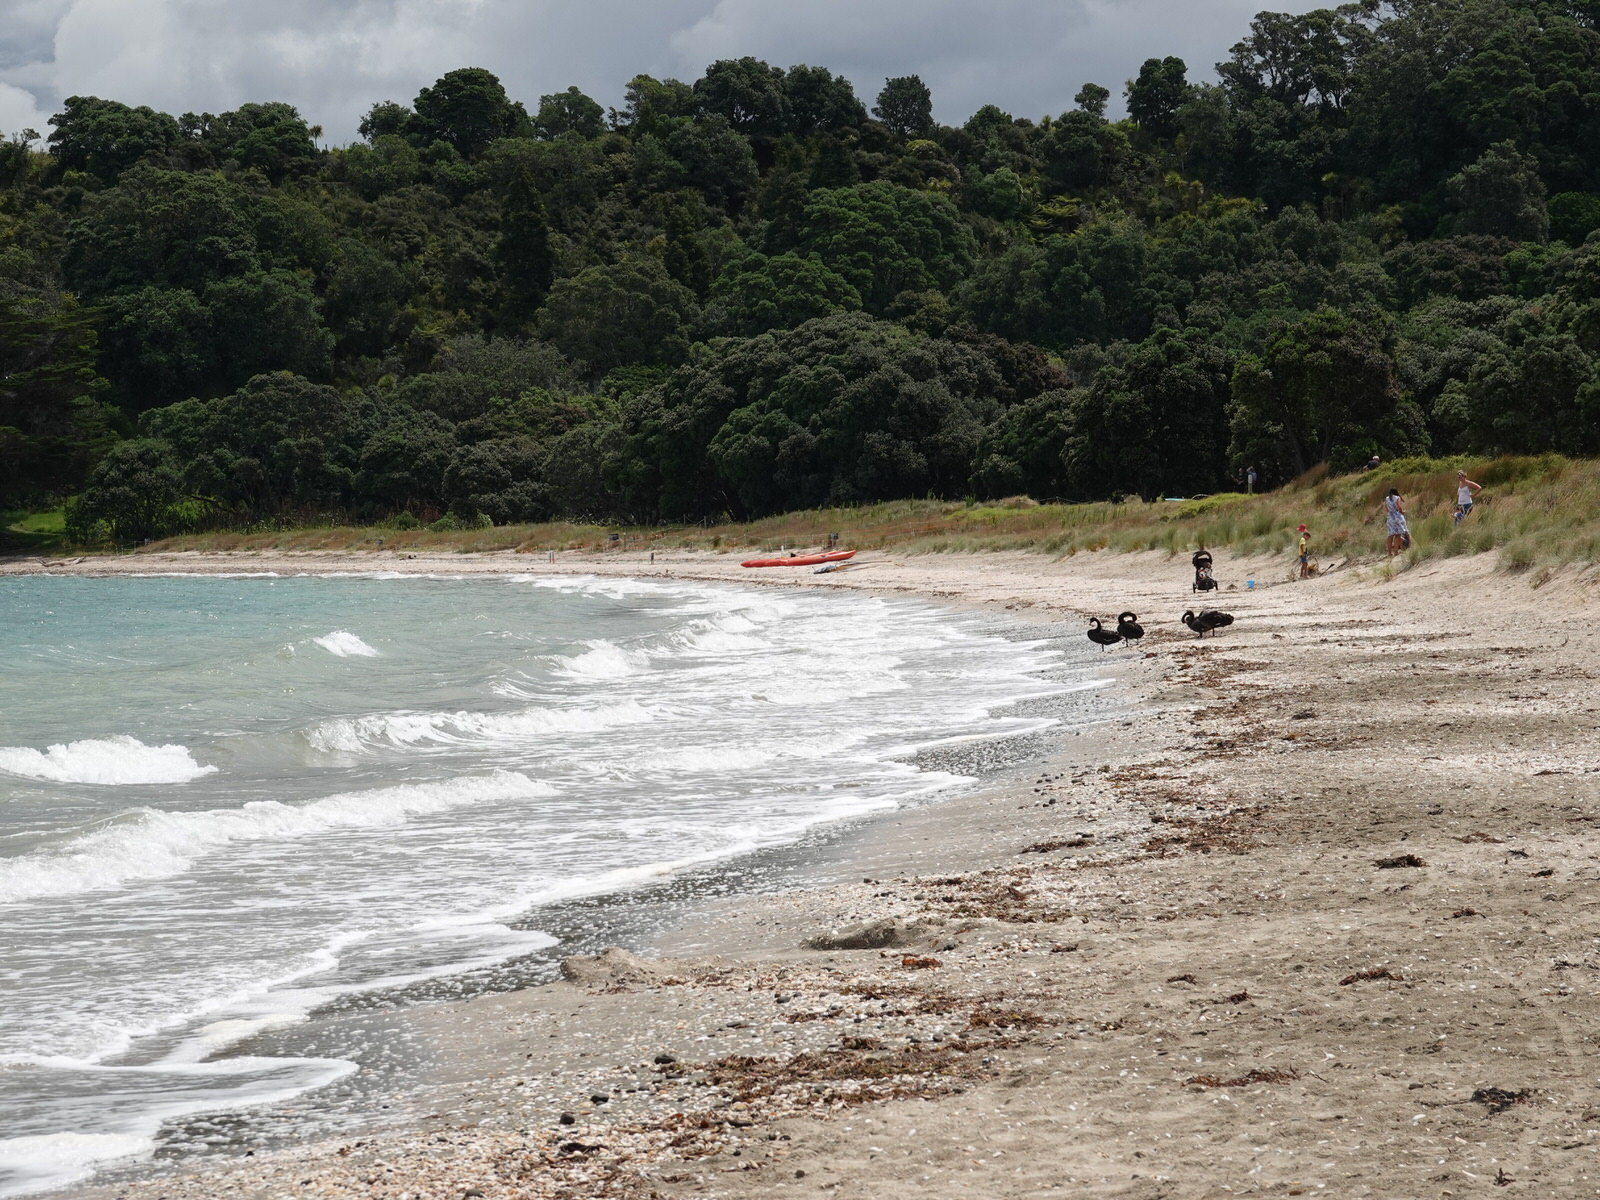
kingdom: Animalia
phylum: Chordata
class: Aves
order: Anseriformes
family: Anatidae
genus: Cygnus
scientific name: Cygnus atratus
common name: Black swan
